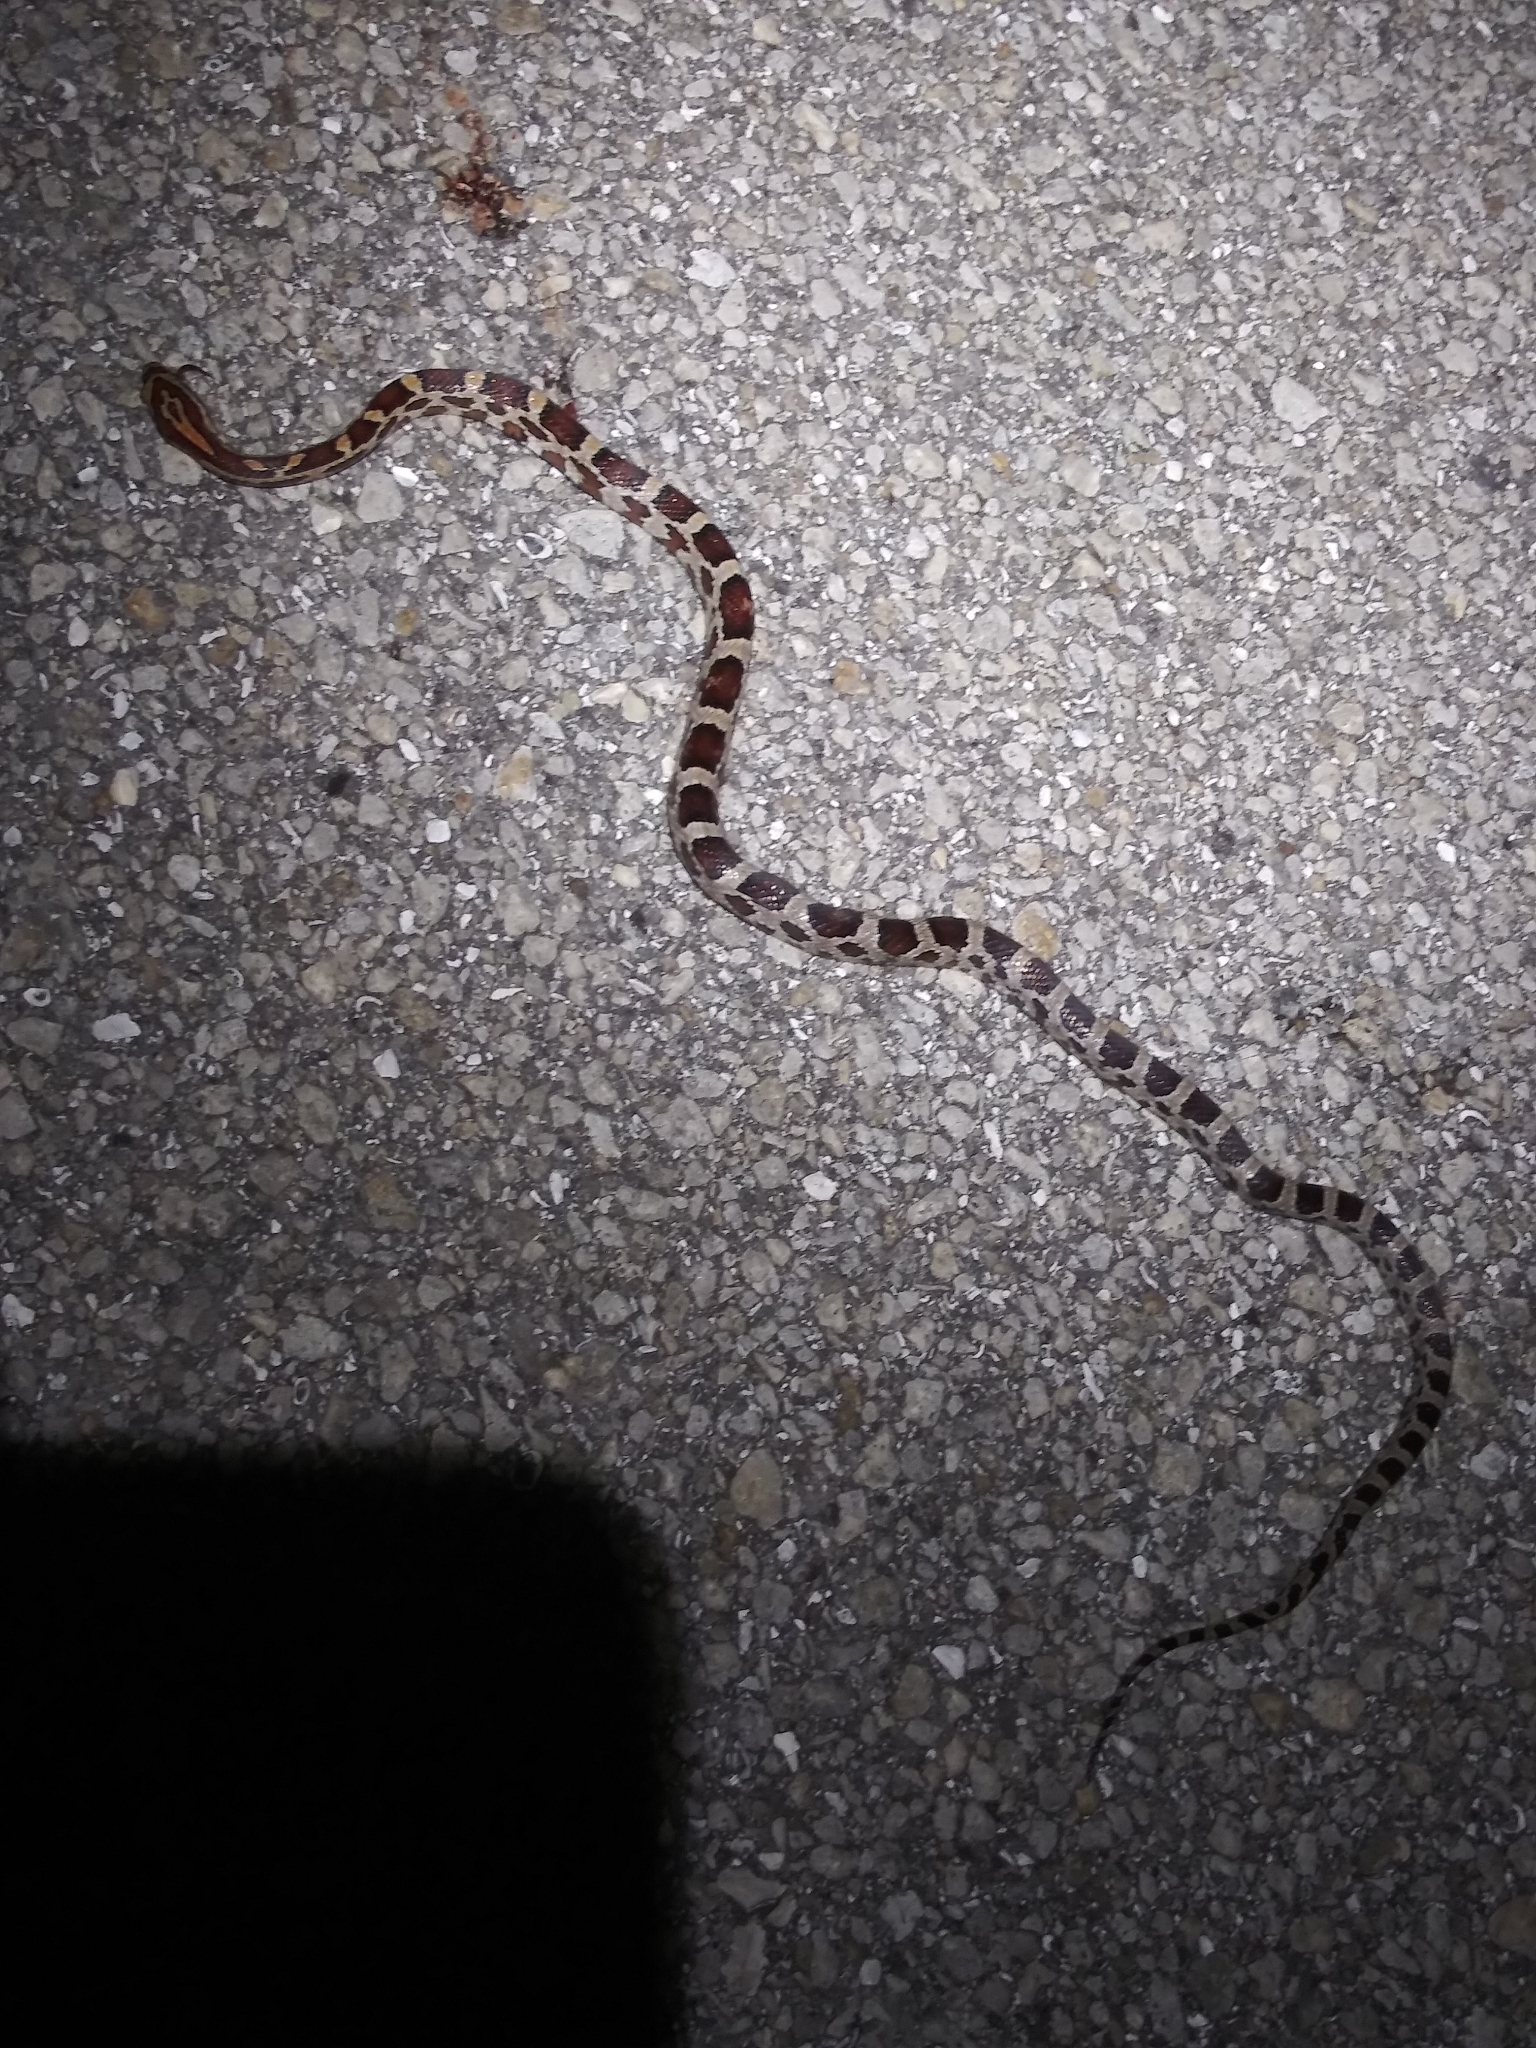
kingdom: Animalia
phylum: Chordata
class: Squamata
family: Colubridae
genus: Pantherophis
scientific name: Pantherophis guttatus
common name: Red cornsnake
